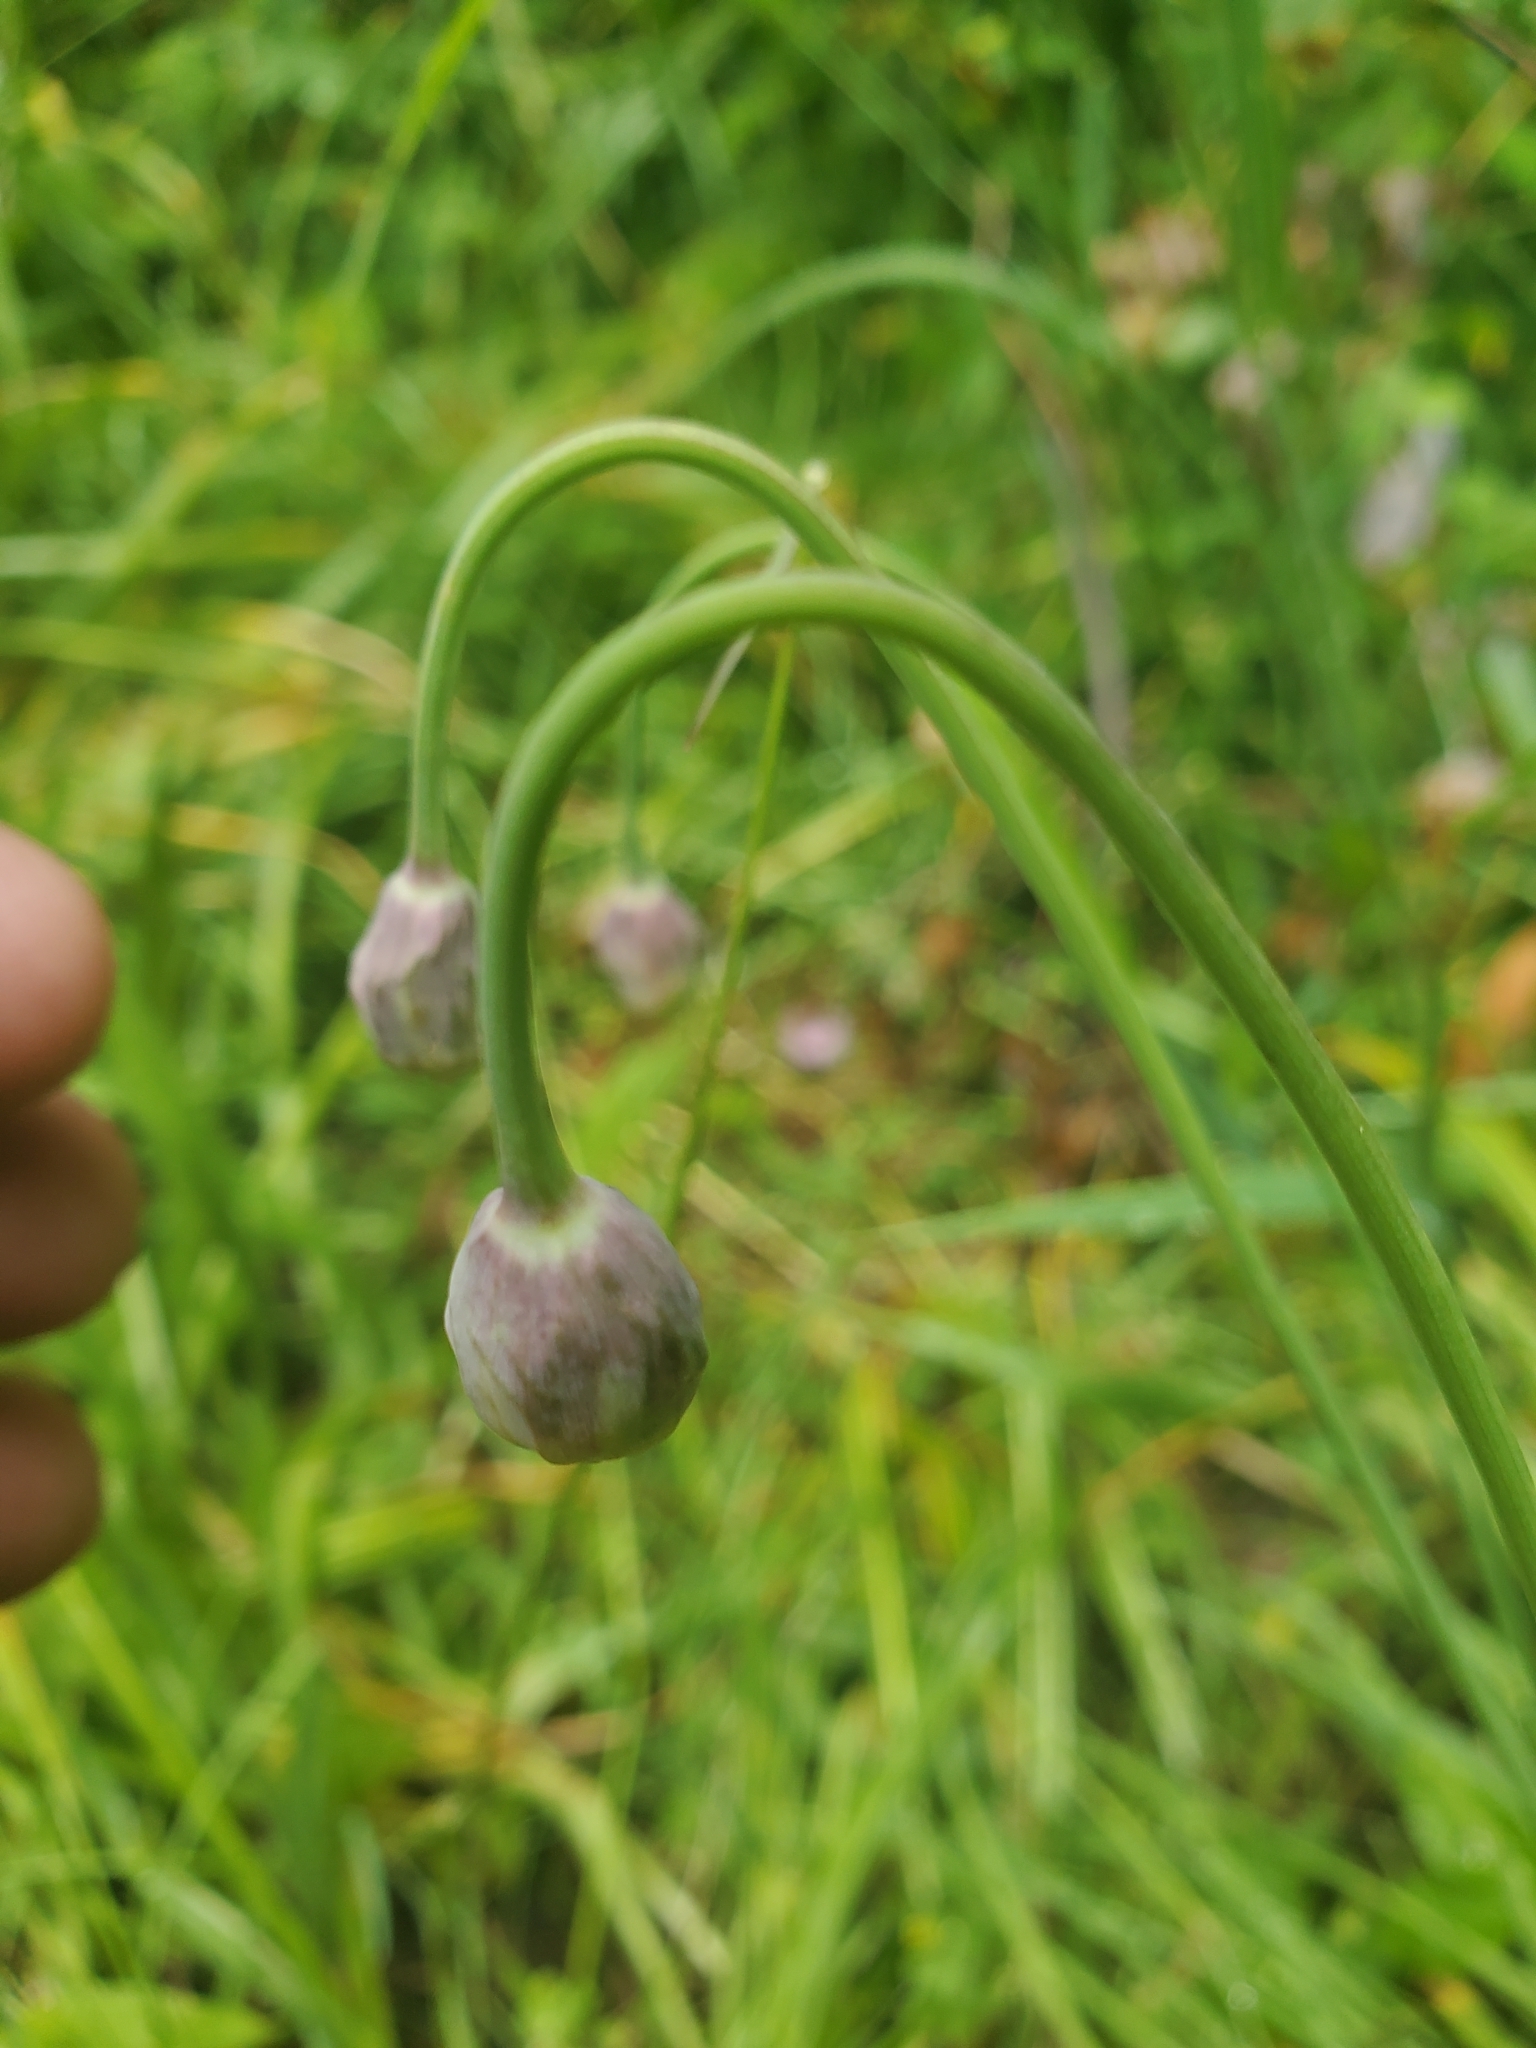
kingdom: Plantae
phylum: Tracheophyta
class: Liliopsida
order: Asparagales
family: Amaryllidaceae
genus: Allium
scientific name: Allium cernuum
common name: Nodding onion
